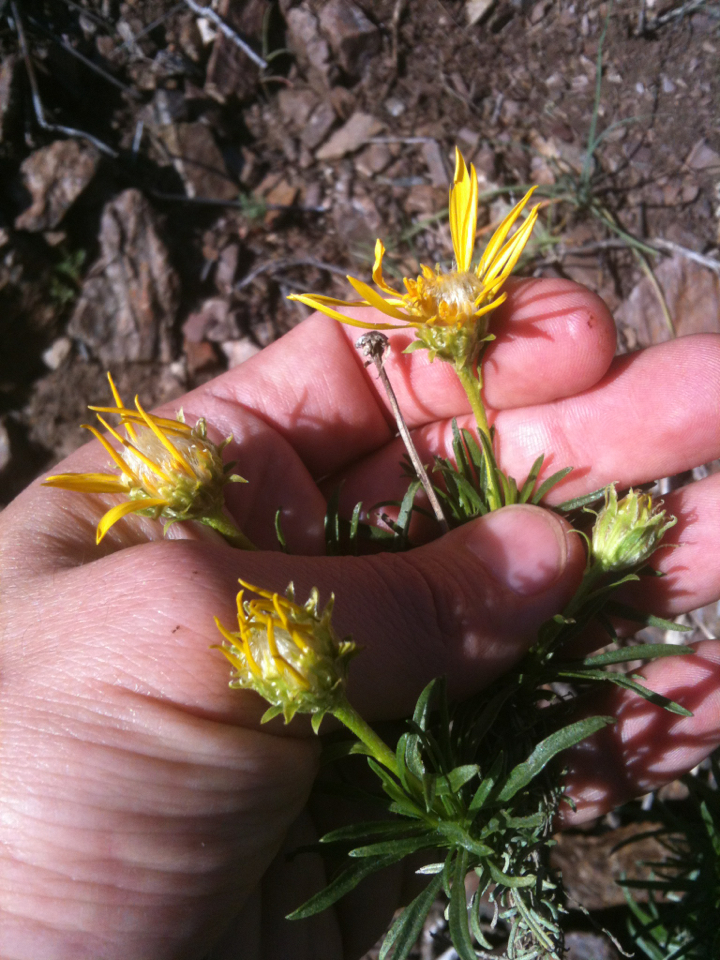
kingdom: Plantae
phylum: Tracheophyta
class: Magnoliopsida
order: Asterales
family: Asteraceae
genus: Ericameria
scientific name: Ericameria linearifolia
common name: Interior goldenbush
